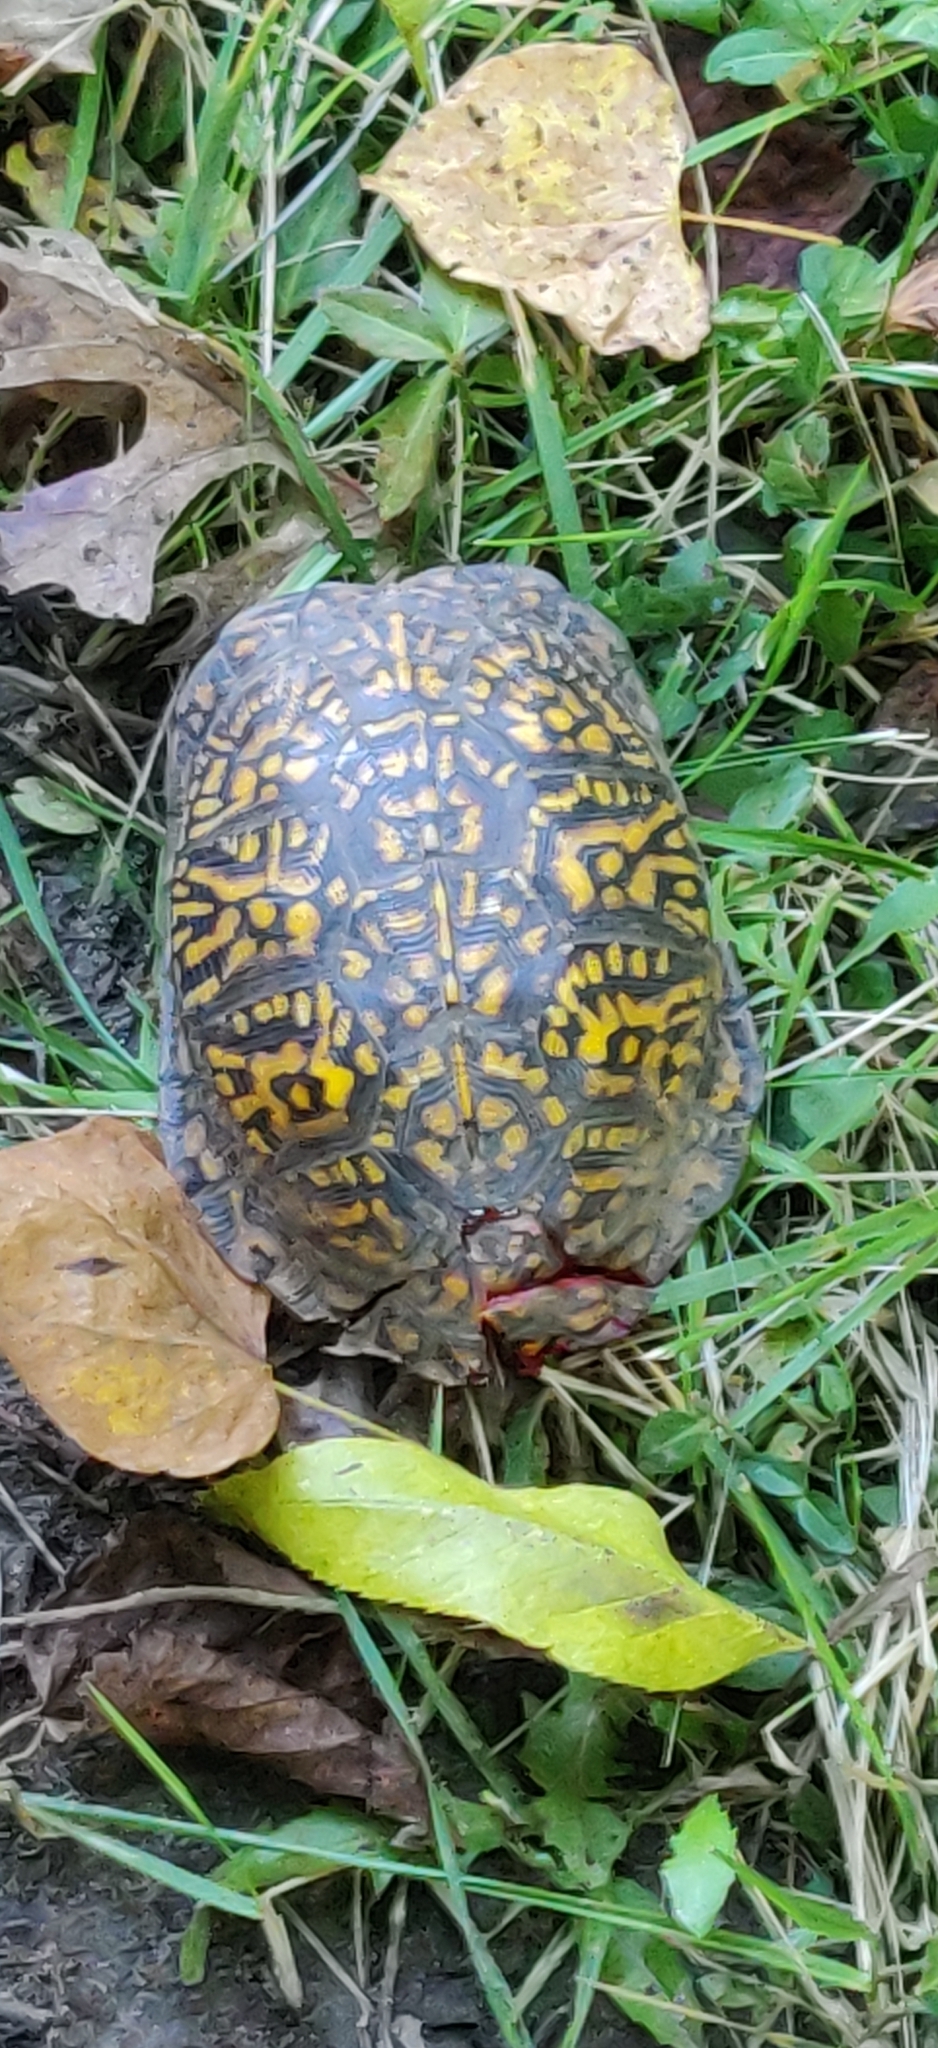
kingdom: Animalia
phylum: Chordata
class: Testudines
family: Emydidae
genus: Terrapene
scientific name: Terrapene carolina
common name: Common box turtle
